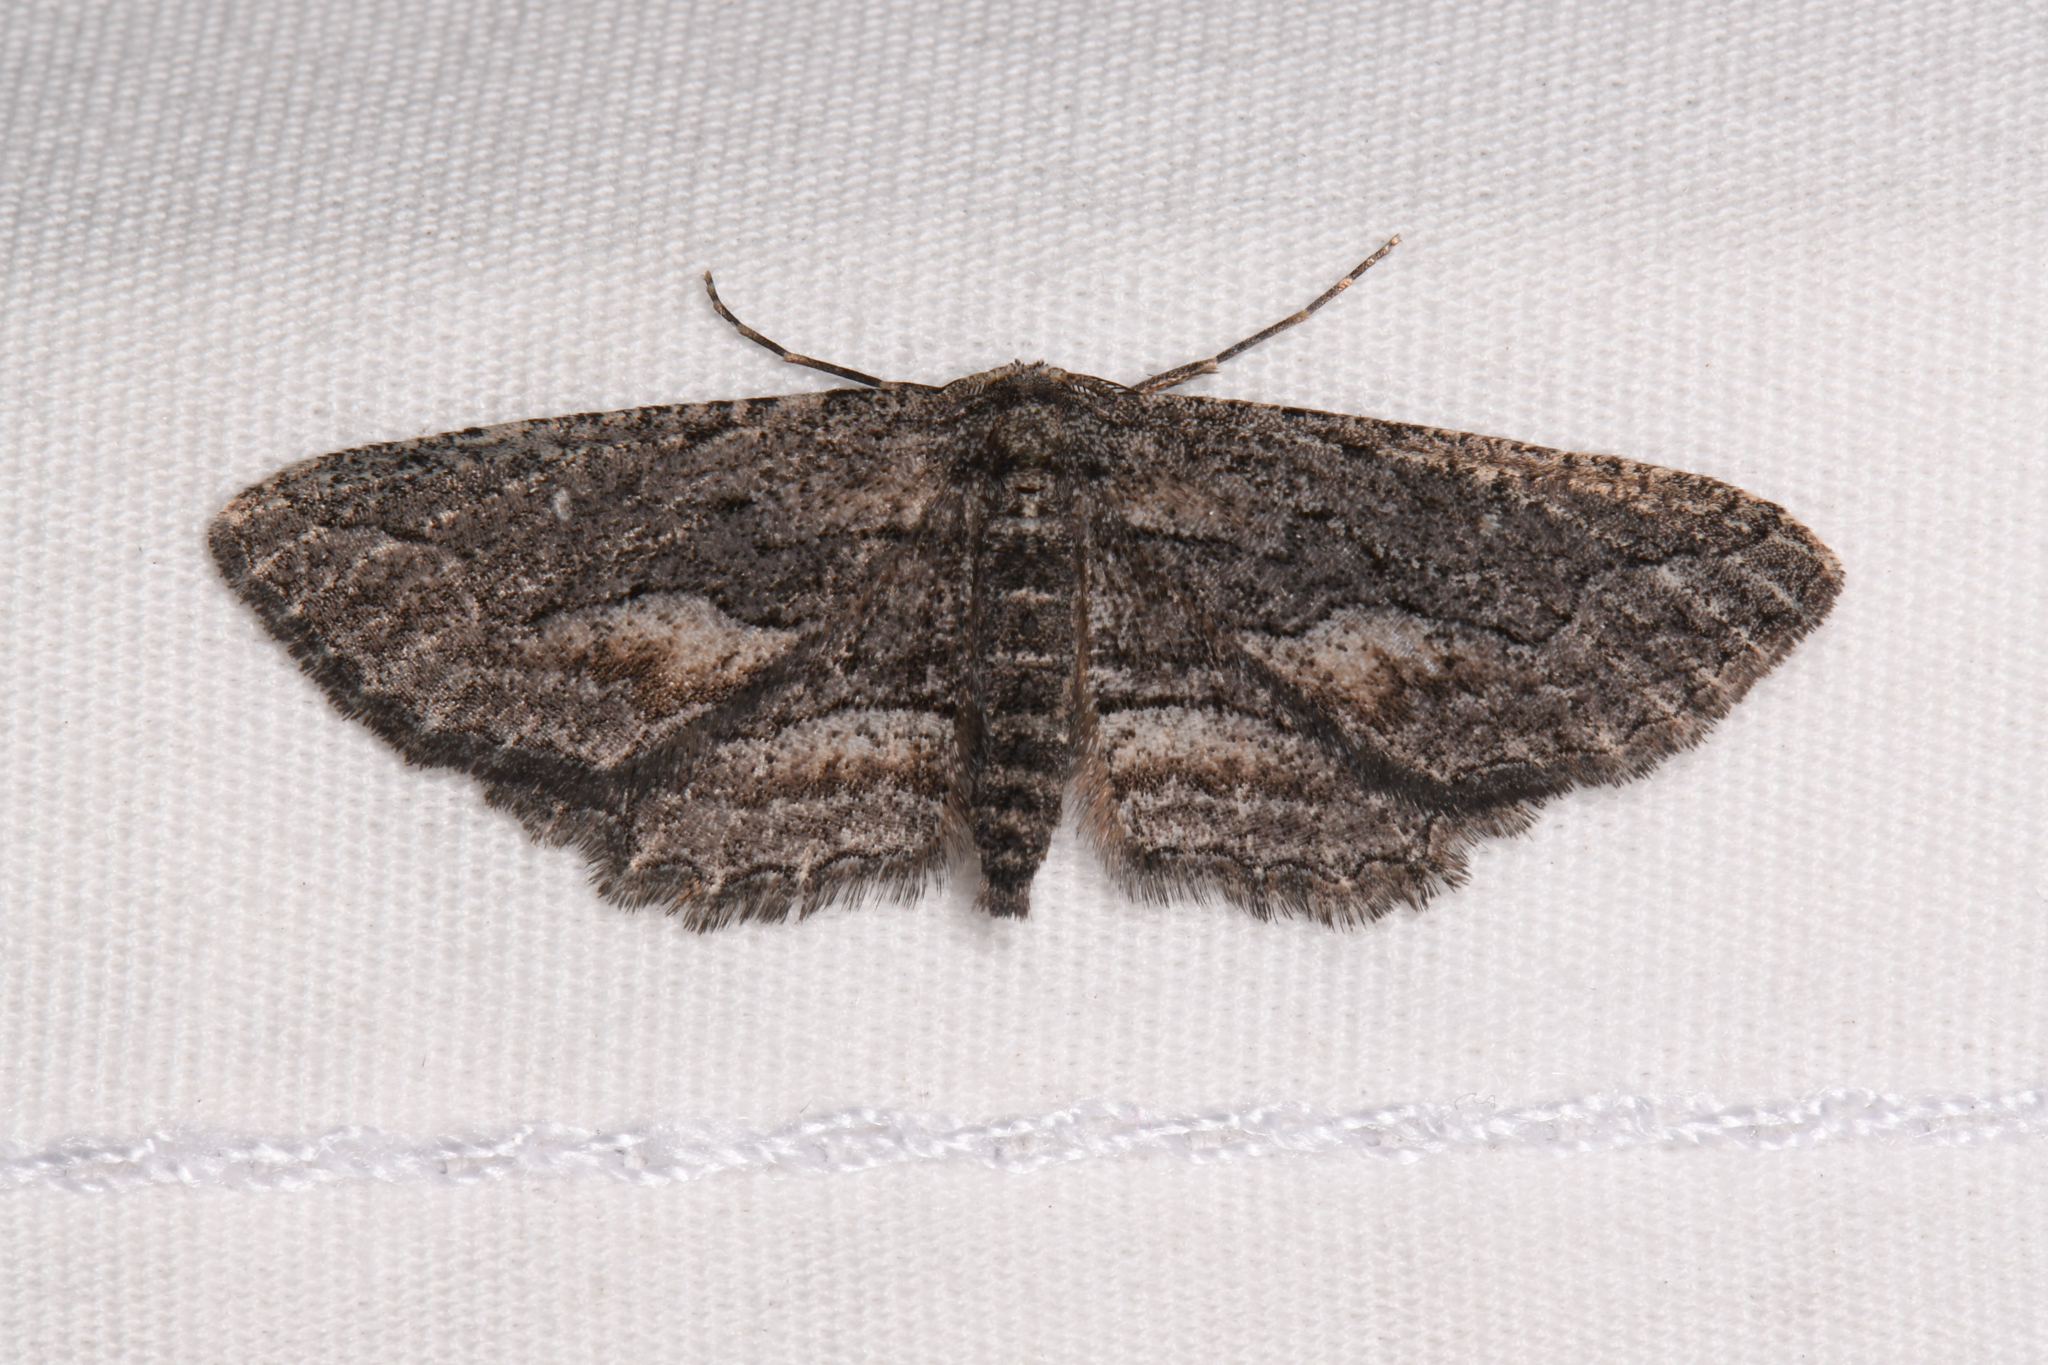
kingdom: Animalia
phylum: Arthropoda
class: Insecta
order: Lepidoptera
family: Geometridae
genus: Aethaloida
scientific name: Aethaloida packardaria
